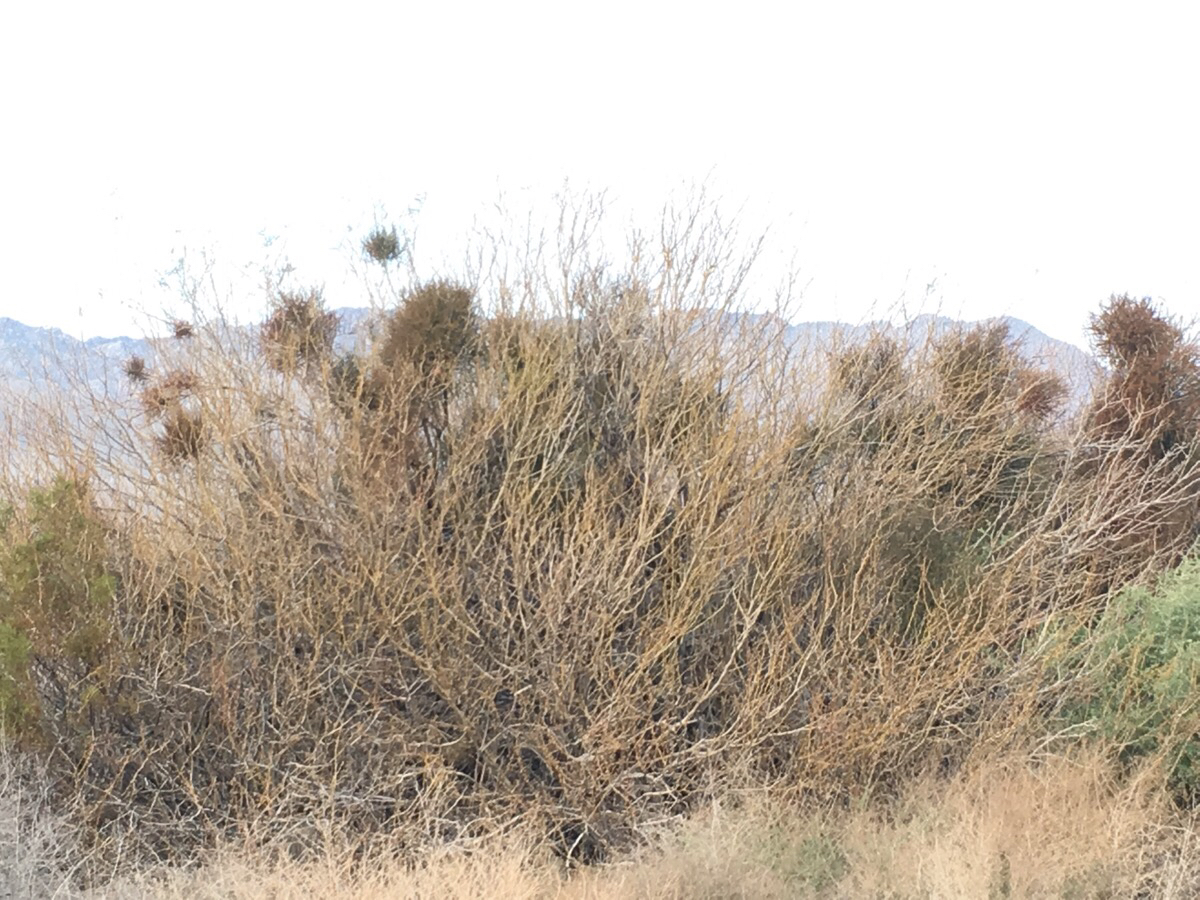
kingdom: Plantae
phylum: Tracheophyta
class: Magnoliopsida
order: Santalales
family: Viscaceae
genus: Phoradendron
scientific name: Phoradendron californicum
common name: Acacia mistletoe
